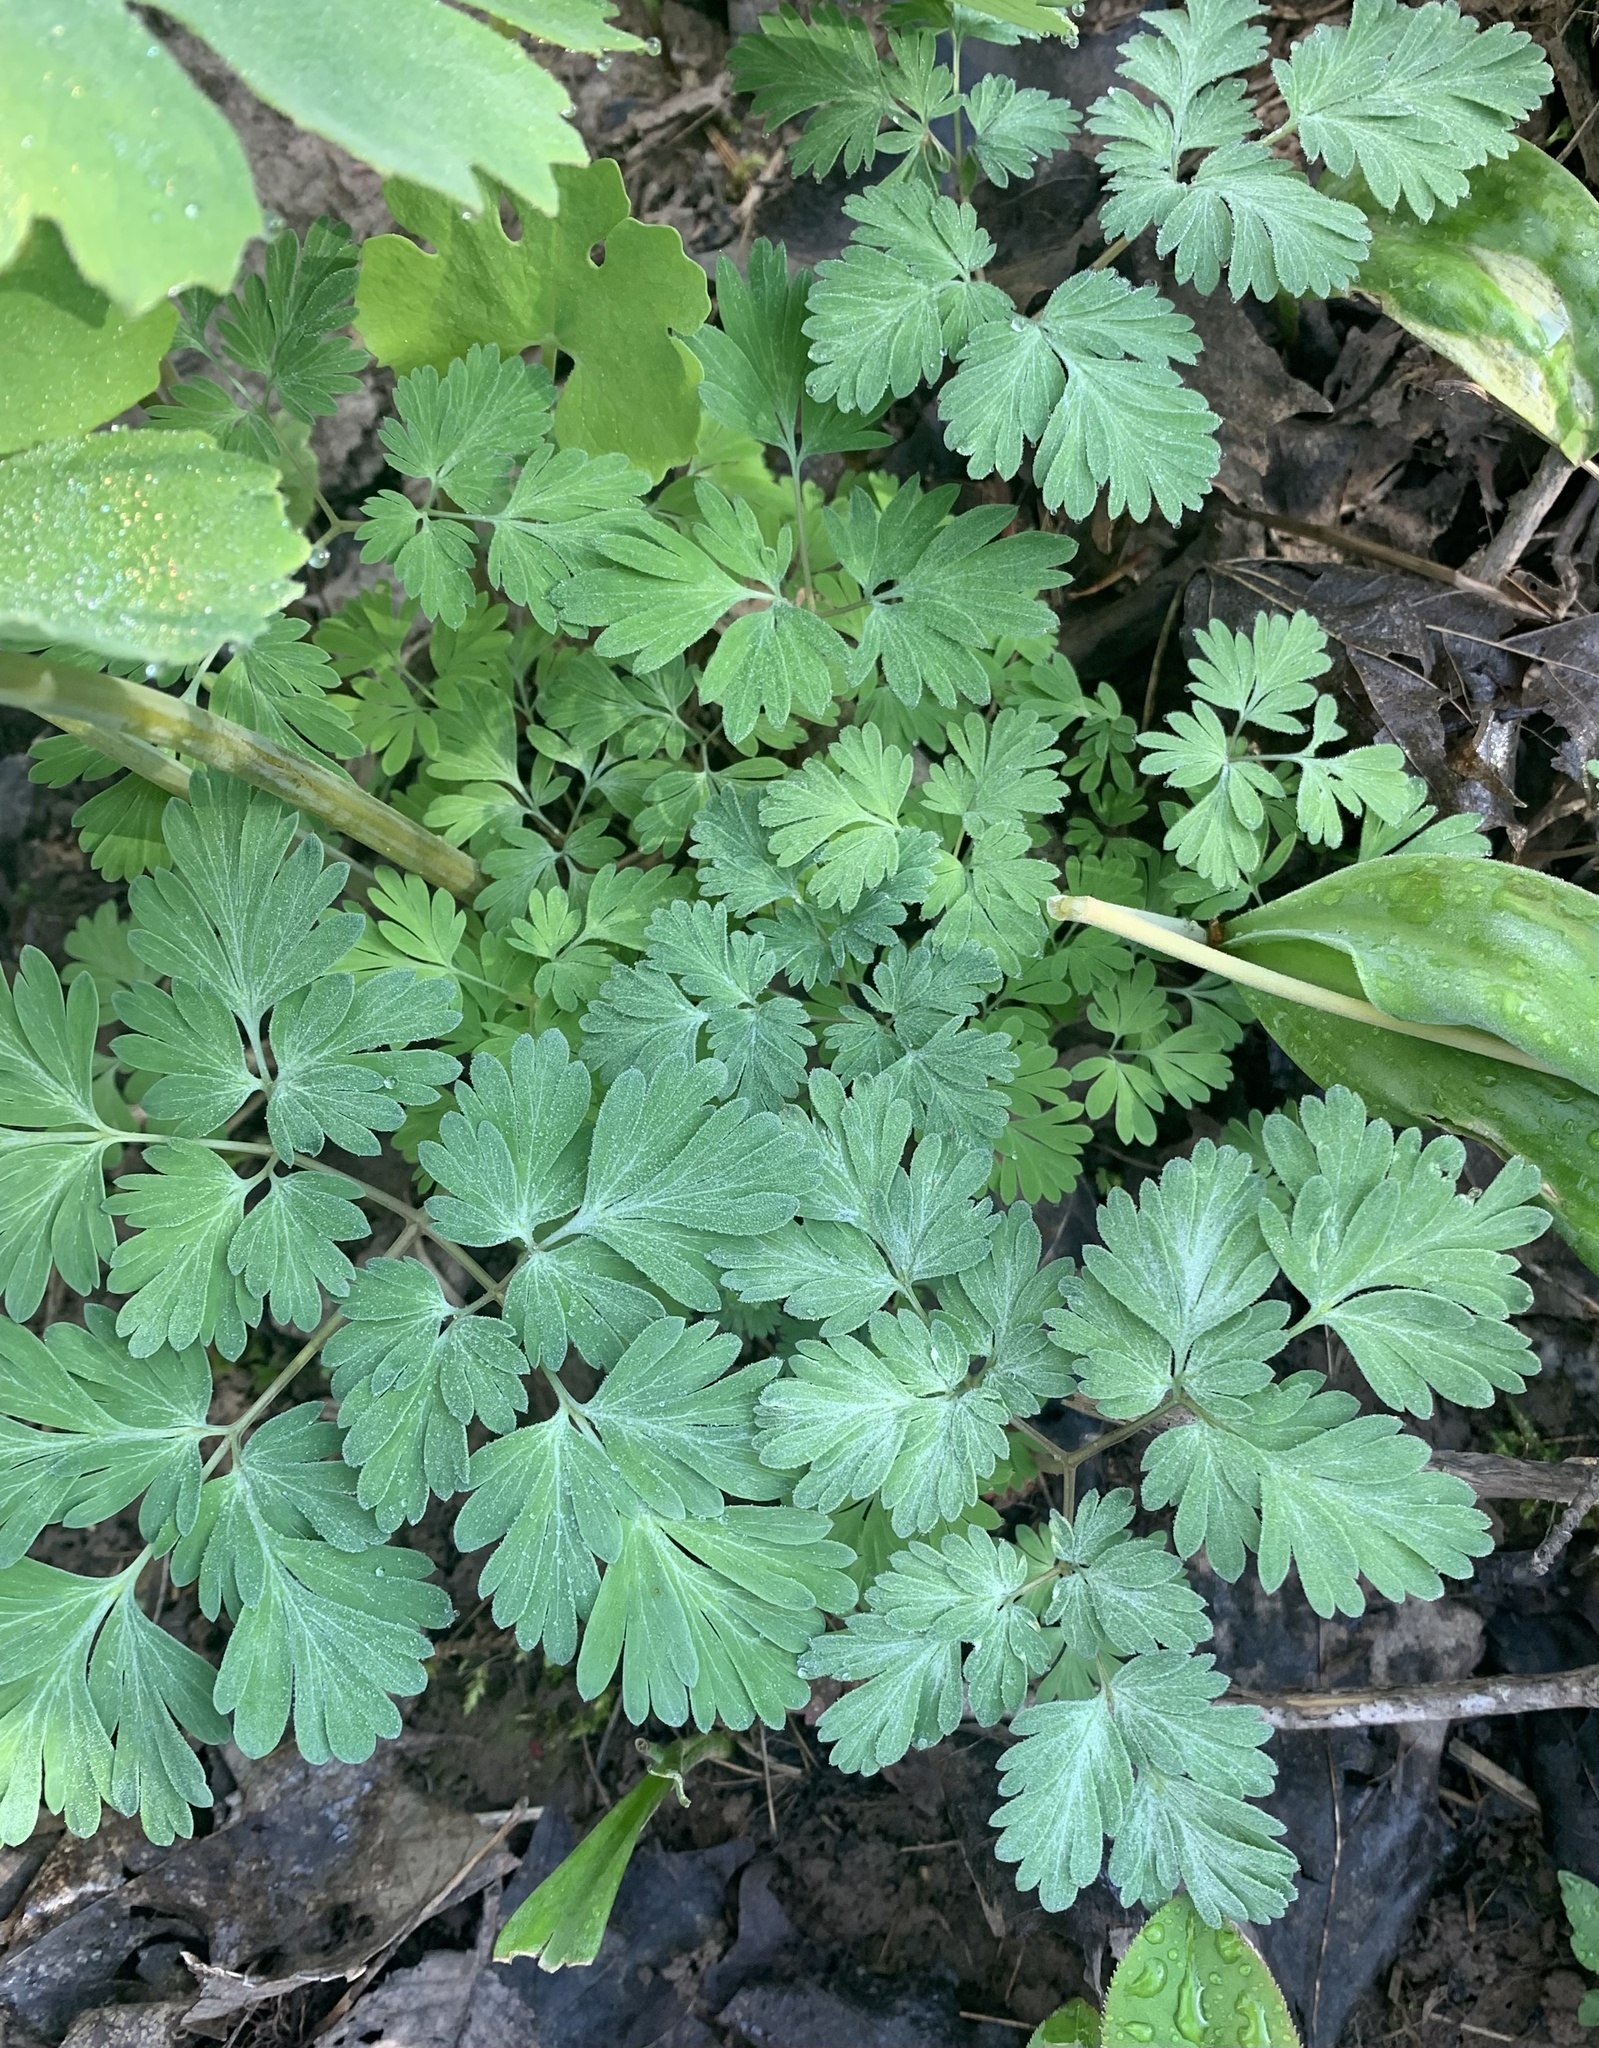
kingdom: Plantae
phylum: Tracheophyta
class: Magnoliopsida
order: Ranunculales
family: Papaveraceae
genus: Dicentra
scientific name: Dicentra cucullaria
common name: Dutchman's breeches
